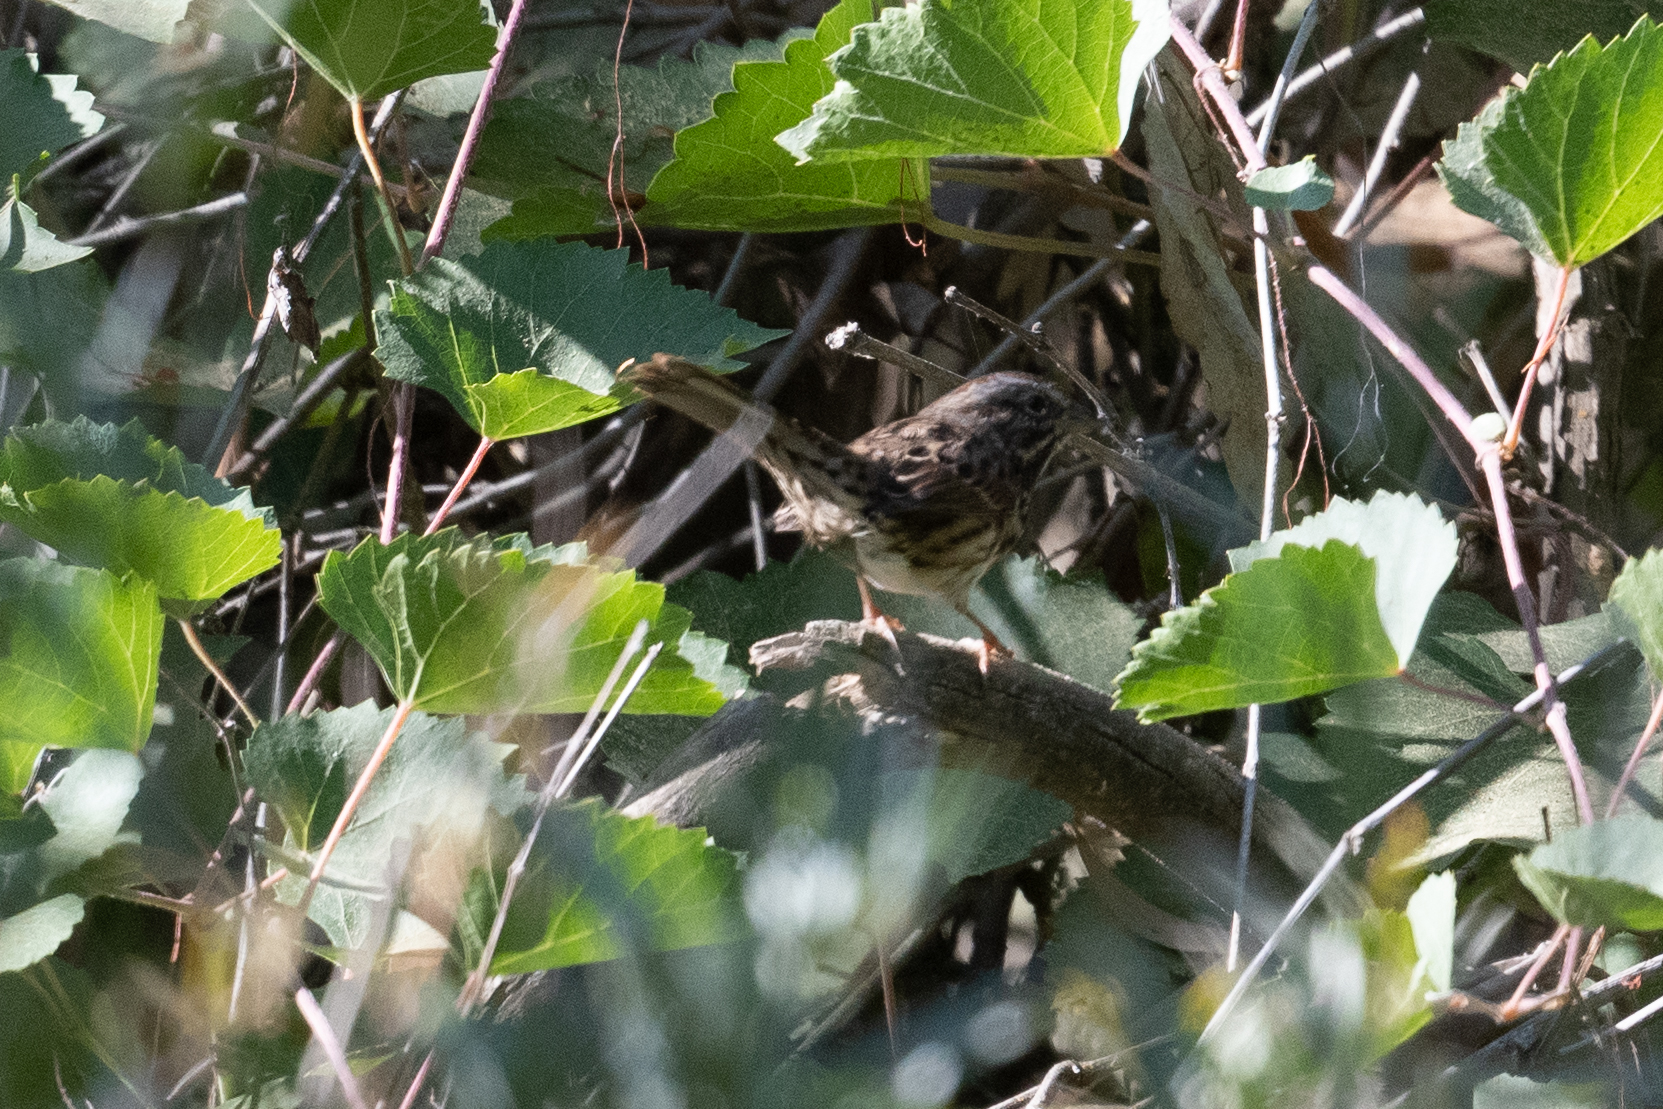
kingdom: Animalia
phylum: Chordata
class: Aves
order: Passeriformes
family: Passerellidae
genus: Melospiza
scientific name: Melospiza melodia
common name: Song sparrow
